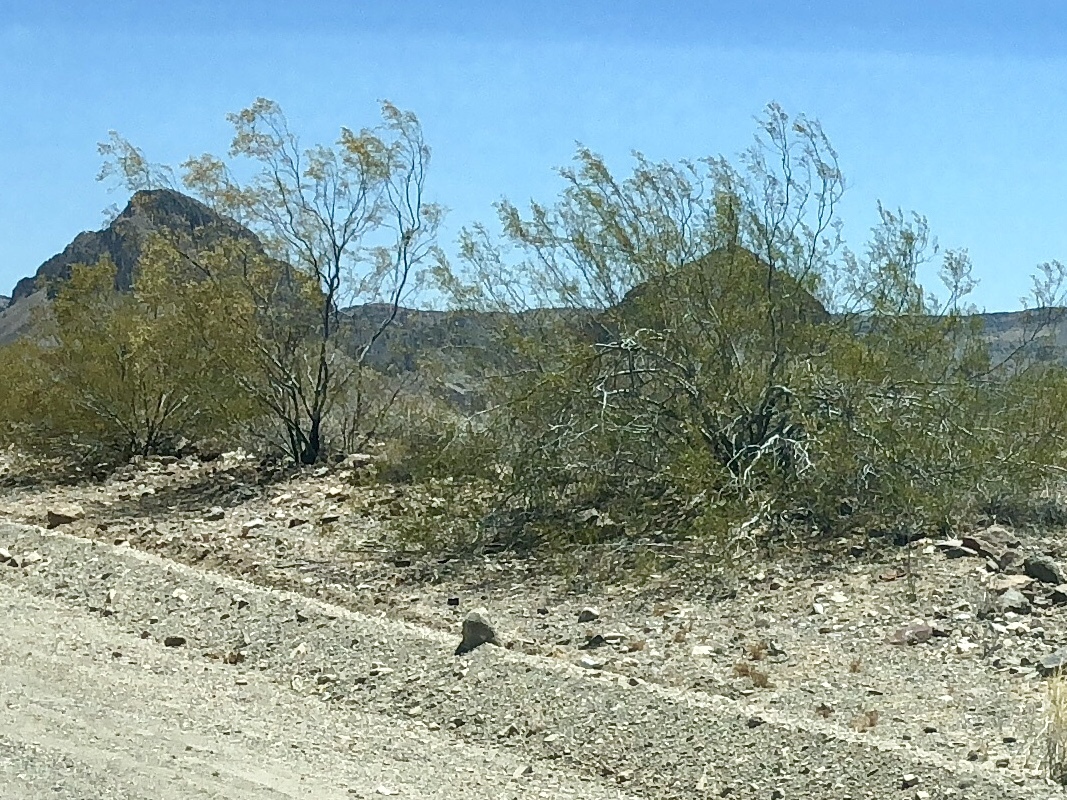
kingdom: Plantae
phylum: Tracheophyta
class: Magnoliopsida
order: Zygophyllales
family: Zygophyllaceae
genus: Larrea
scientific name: Larrea tridentata
